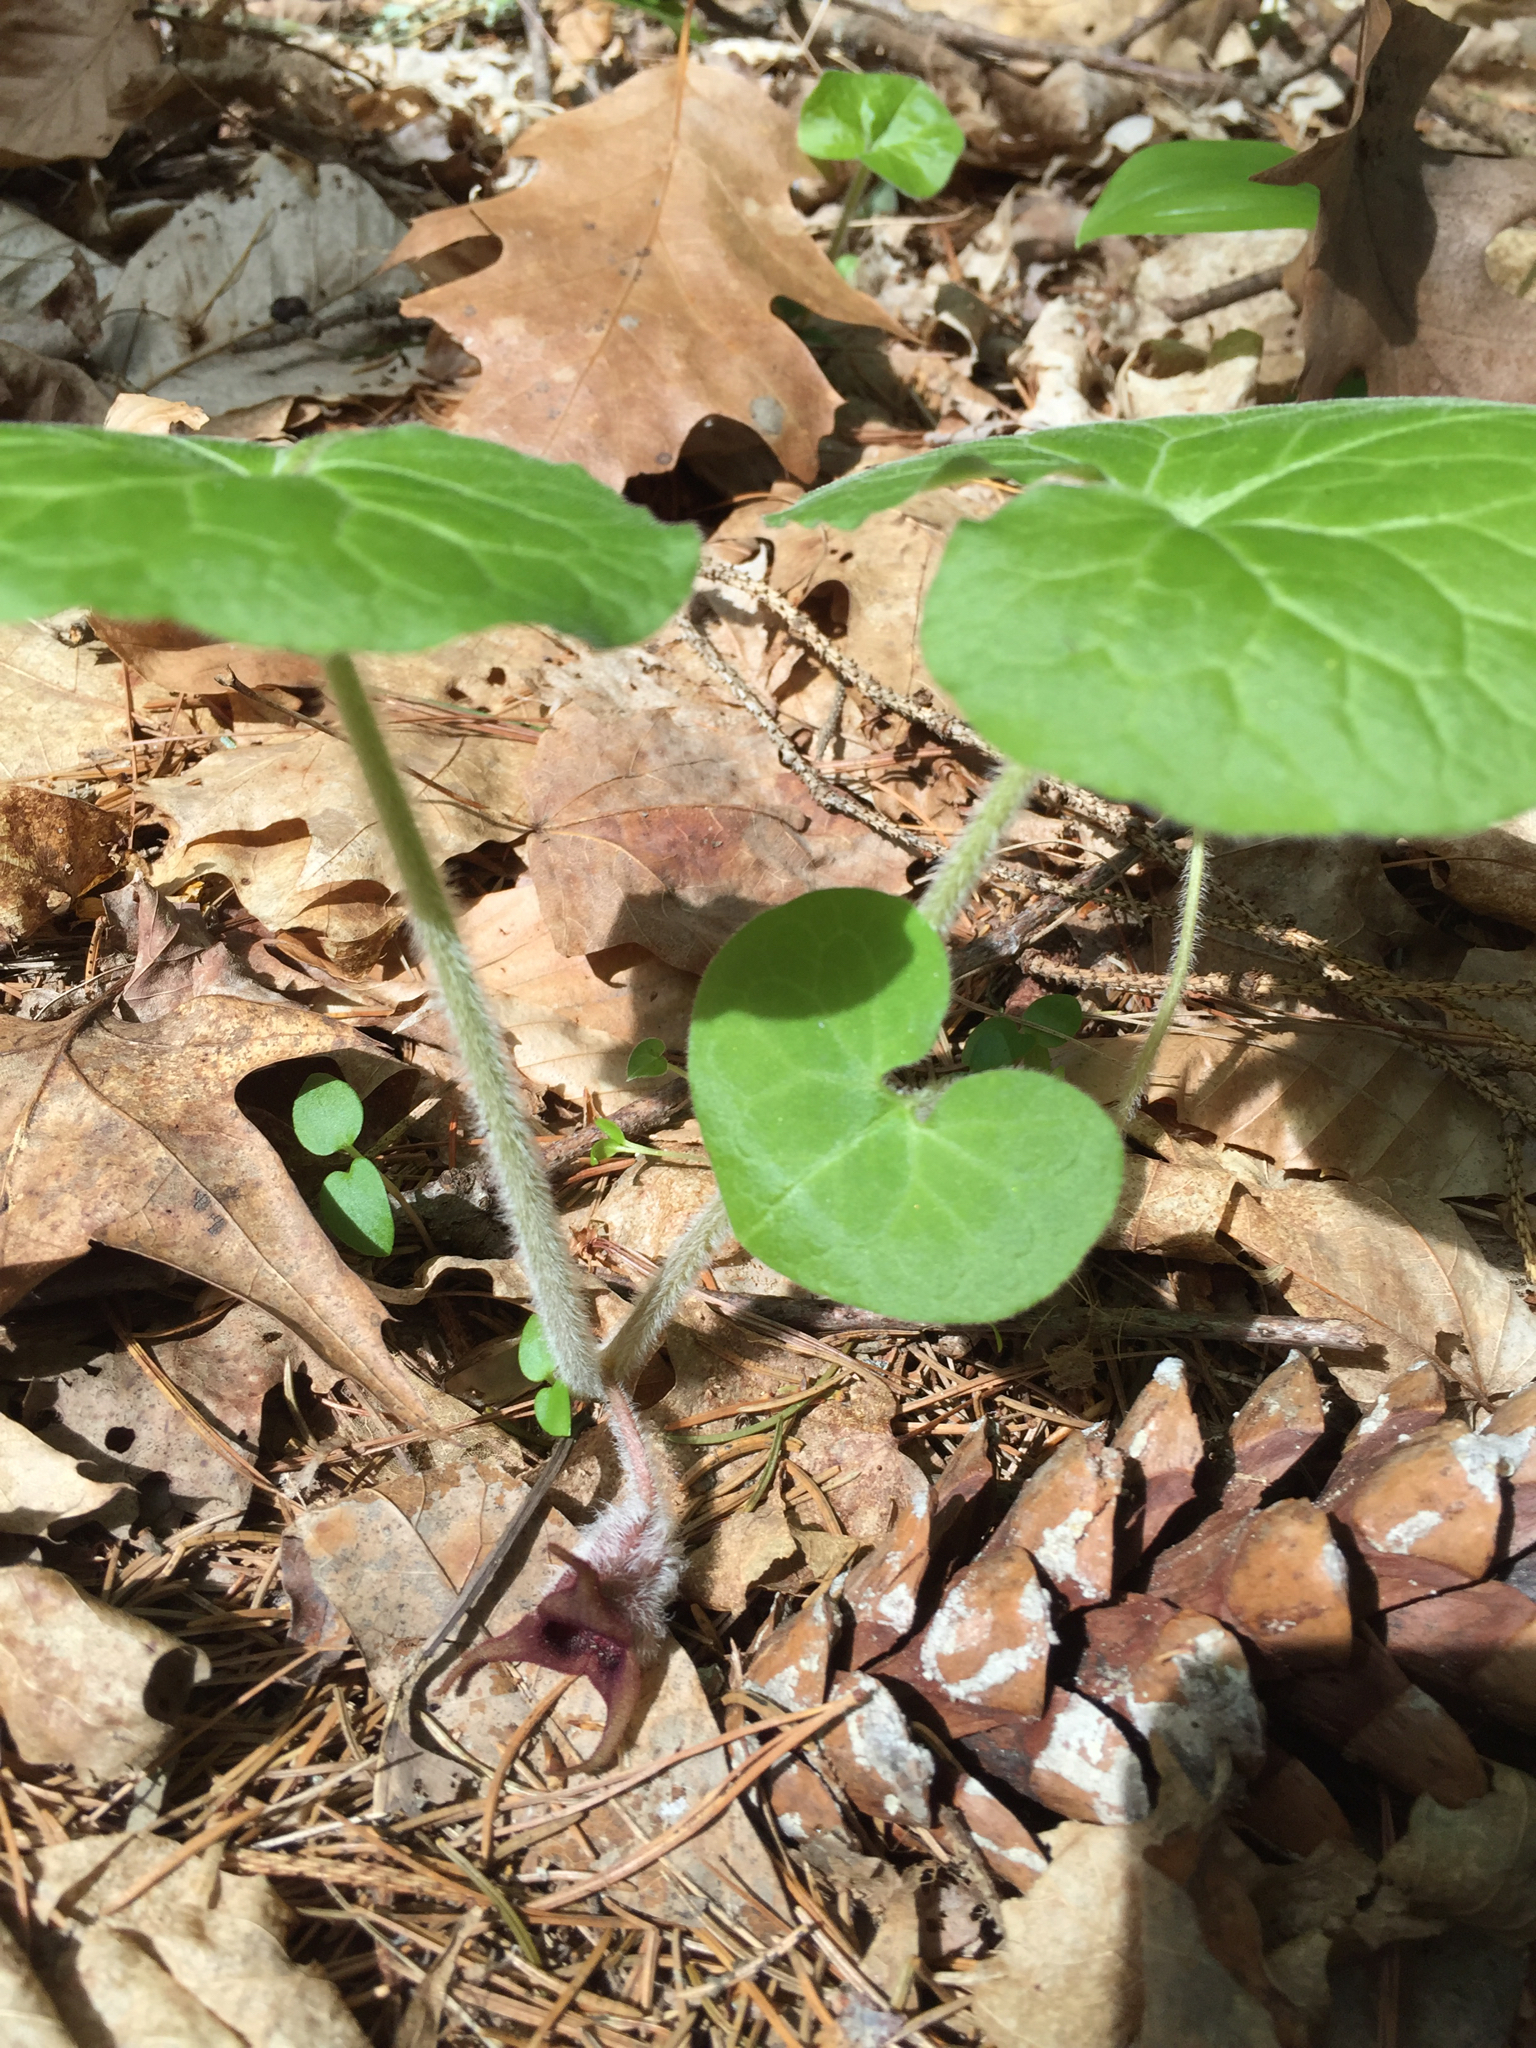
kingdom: Plantae
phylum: Tracheophyta
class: Magnoliopsida
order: Piperales
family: Aristolochiaceae
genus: Asarum
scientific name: Asarum canadense
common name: Wild ginger
